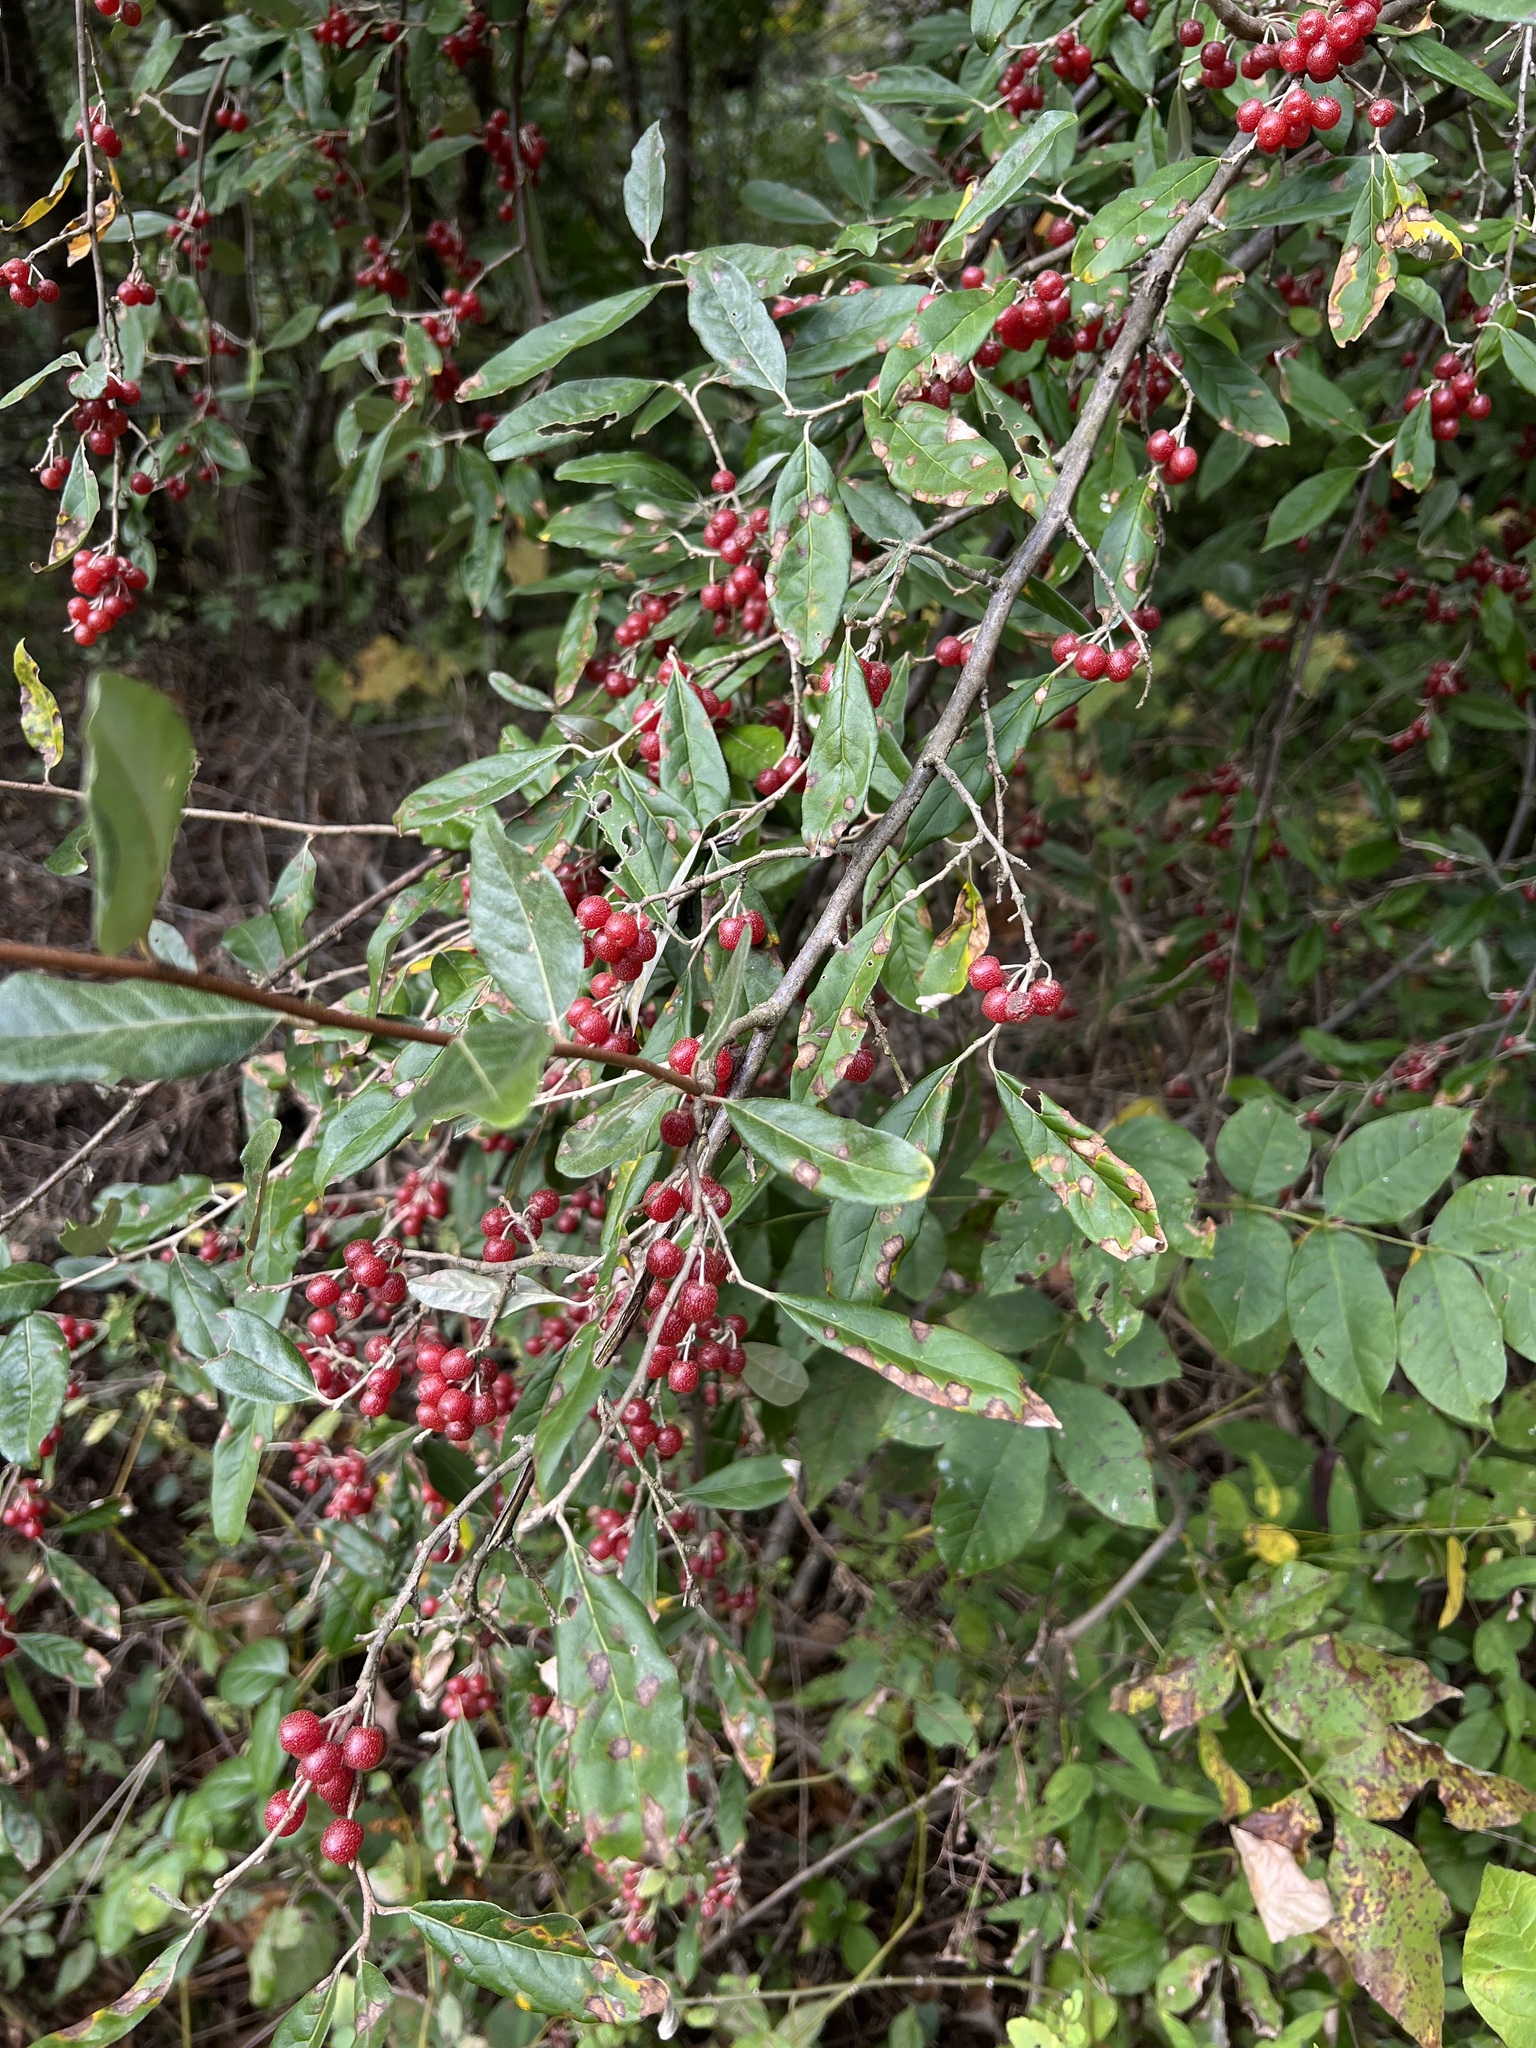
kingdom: Plantae
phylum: Tracheophyta
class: Magnoliopsida
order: Rosales
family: Elaeagnaceae
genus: Elaeagnus
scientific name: Elaeagnus umbellata
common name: Autumn olive
